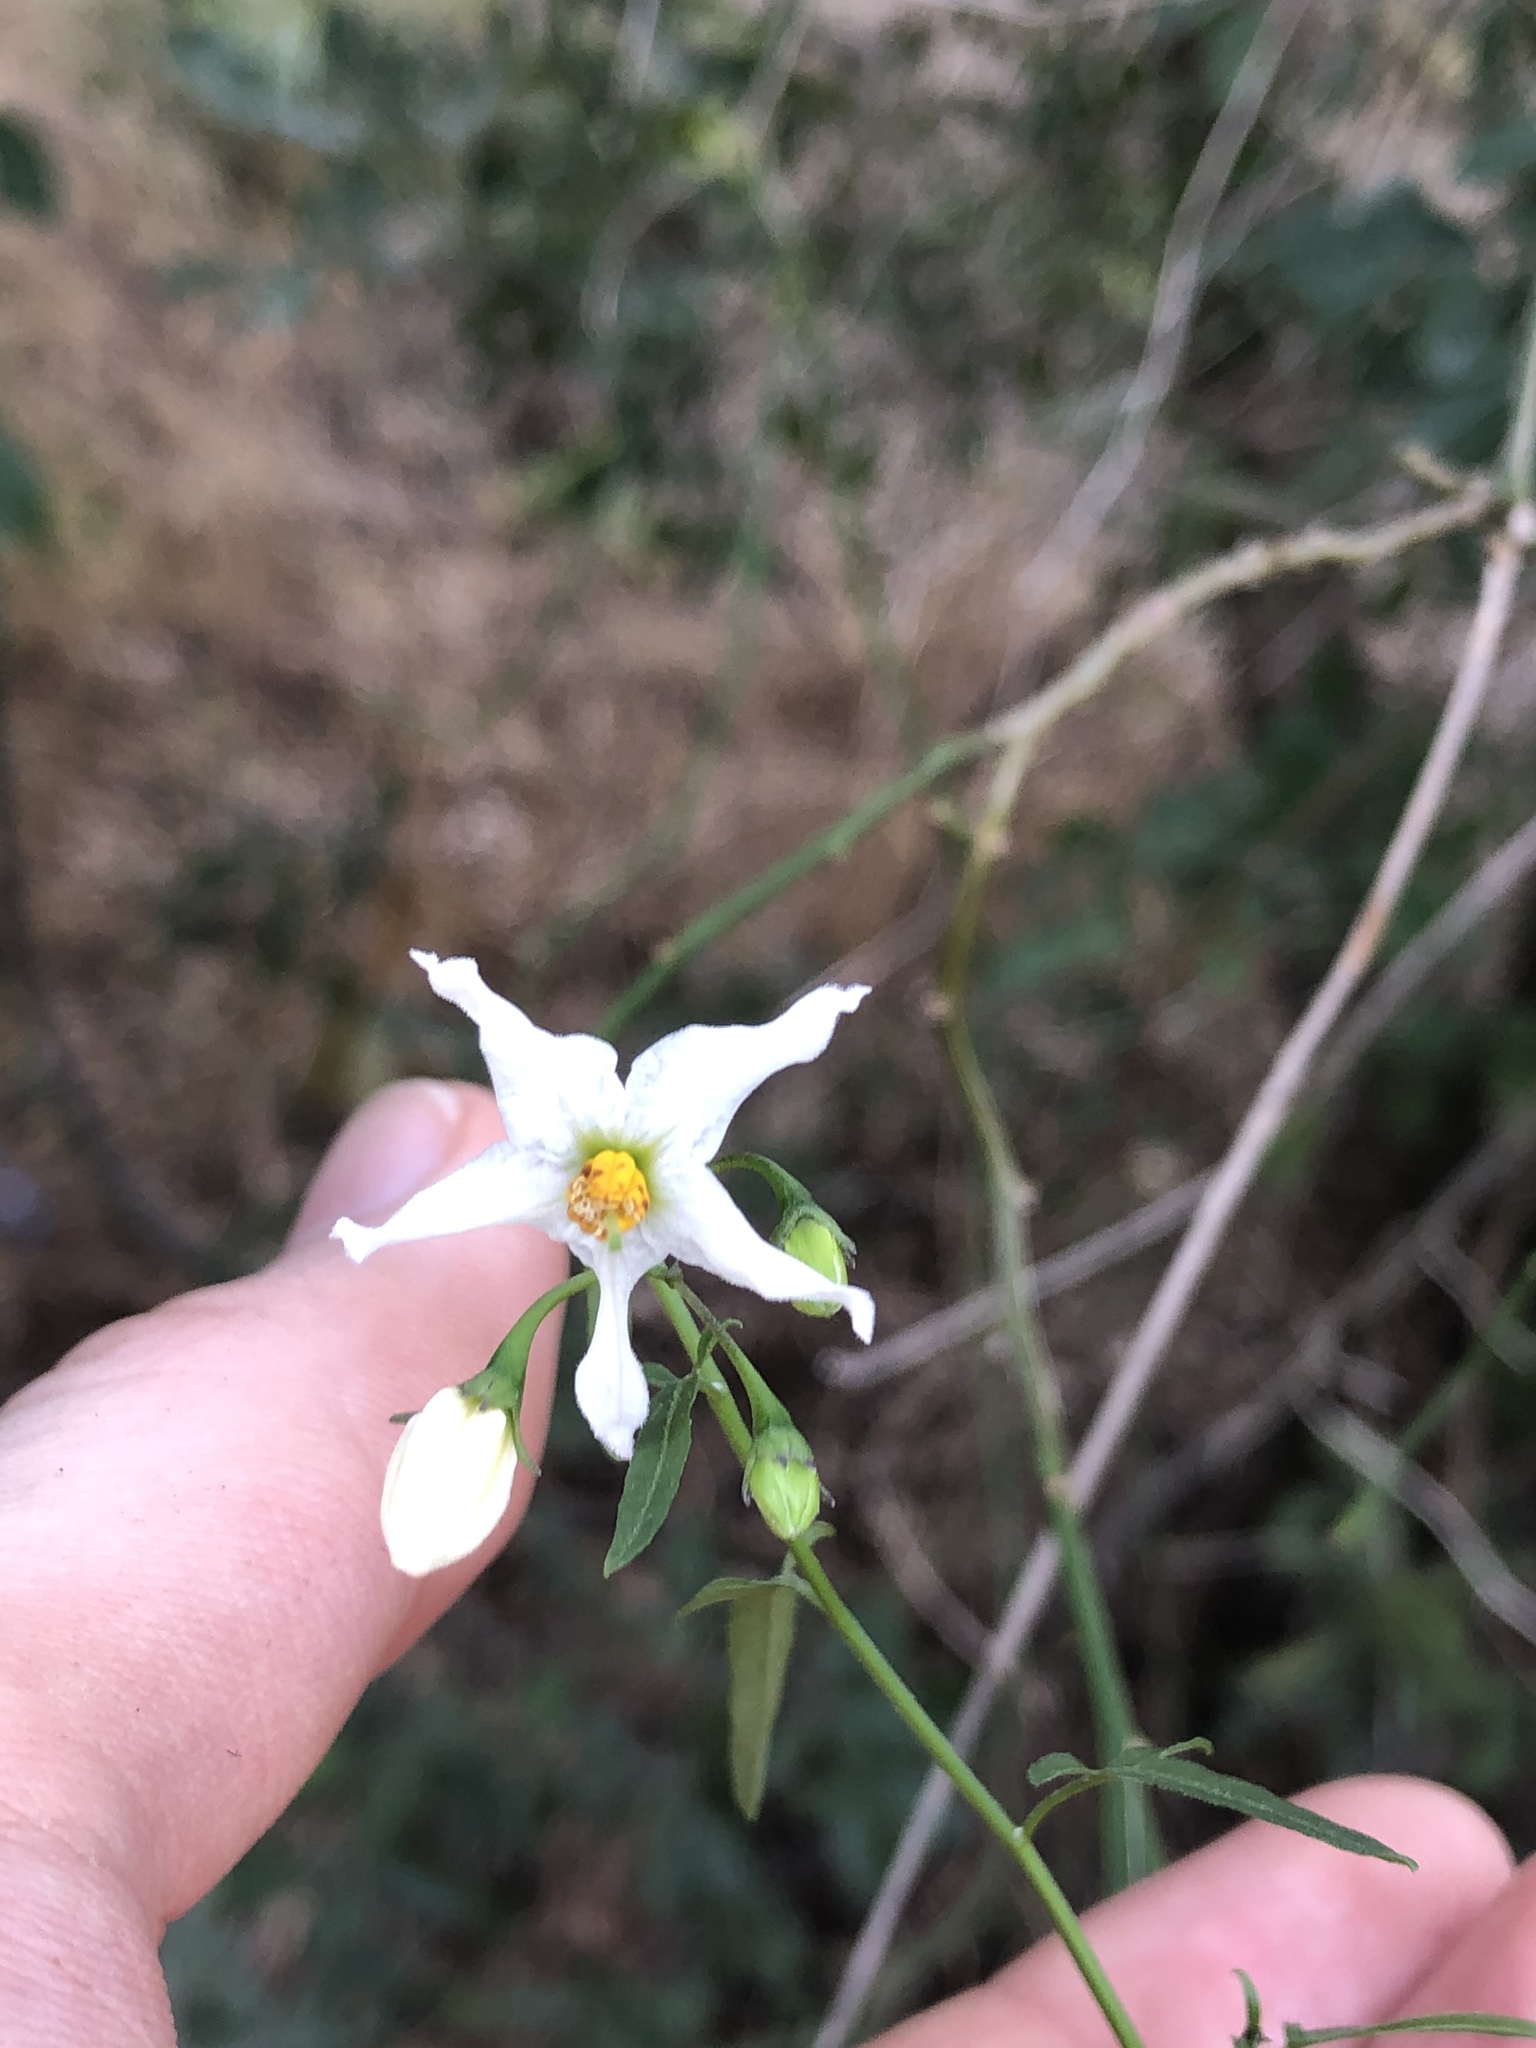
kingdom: Plantae
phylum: Tracheophyta
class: Magnoliopsida
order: Solanales
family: Solanaceae
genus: Solanum
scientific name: Solanum triquetrum
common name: Texas nightshade
